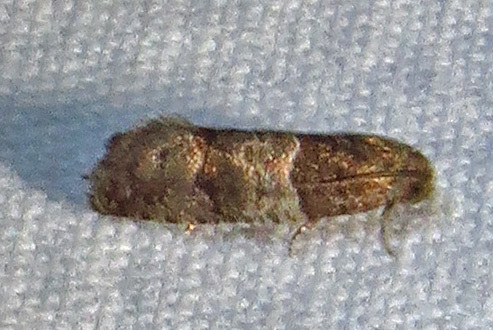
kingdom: Animalia
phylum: Arthropoda
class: Insecta
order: Lepidoptera
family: Tortricidae
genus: Larisa
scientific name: Larisa subsolana
